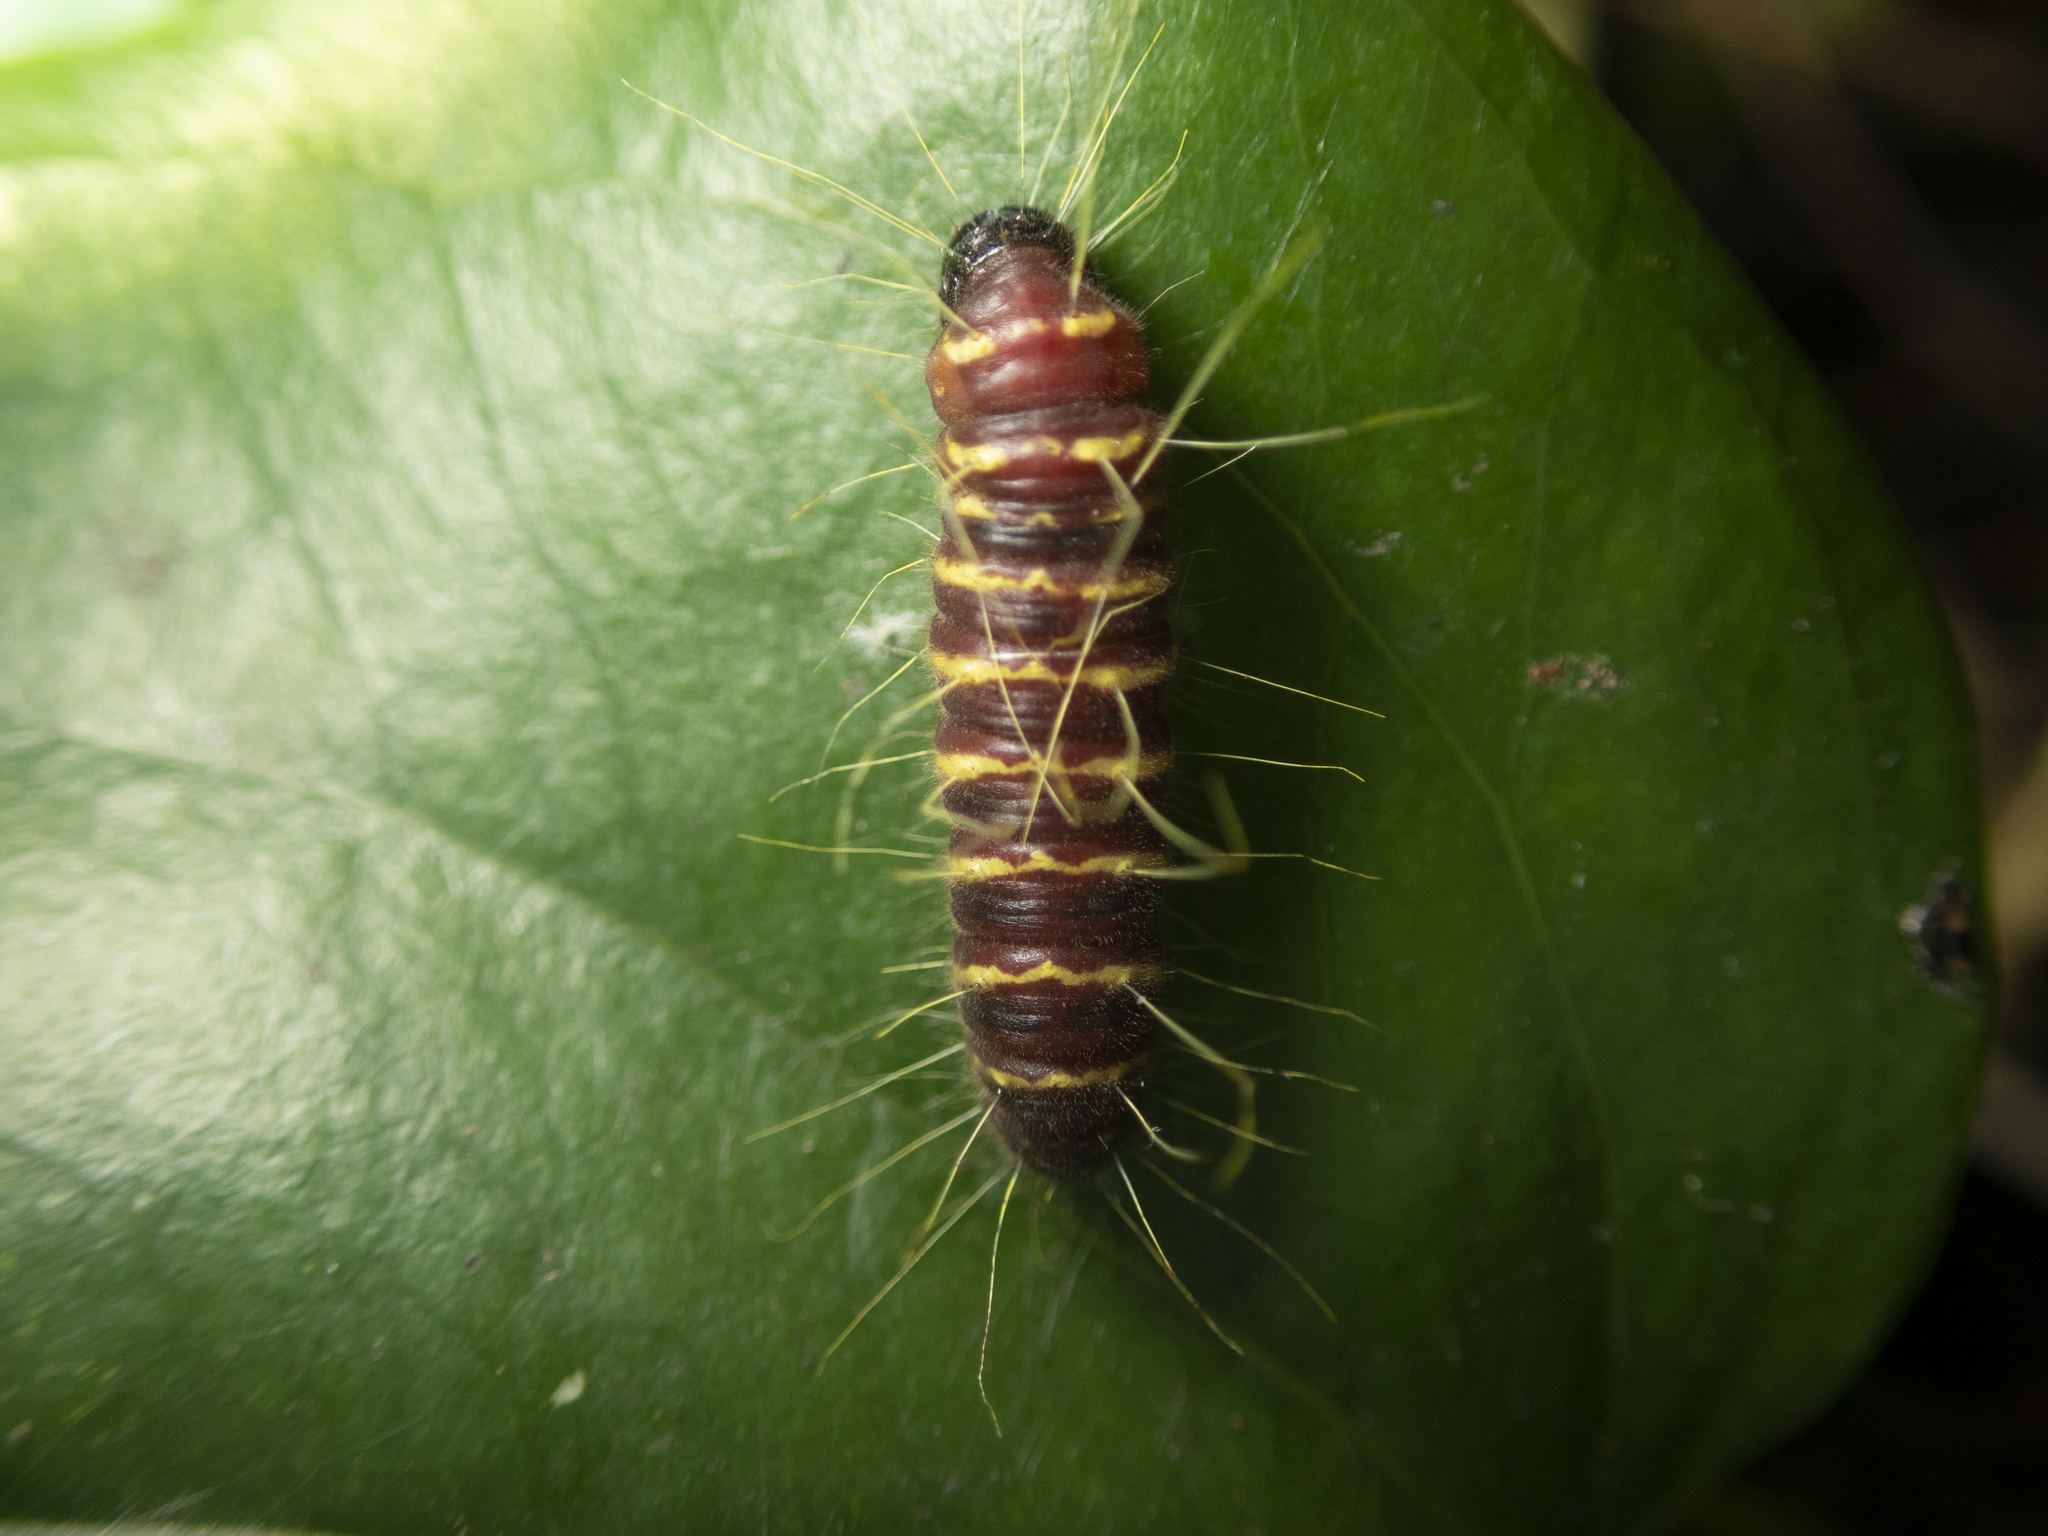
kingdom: Animalia
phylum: Arthropoda
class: Insecta
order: Lepidoptera
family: Pieridae
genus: Delias
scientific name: Delias pasithoe
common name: Red-base jezebel
